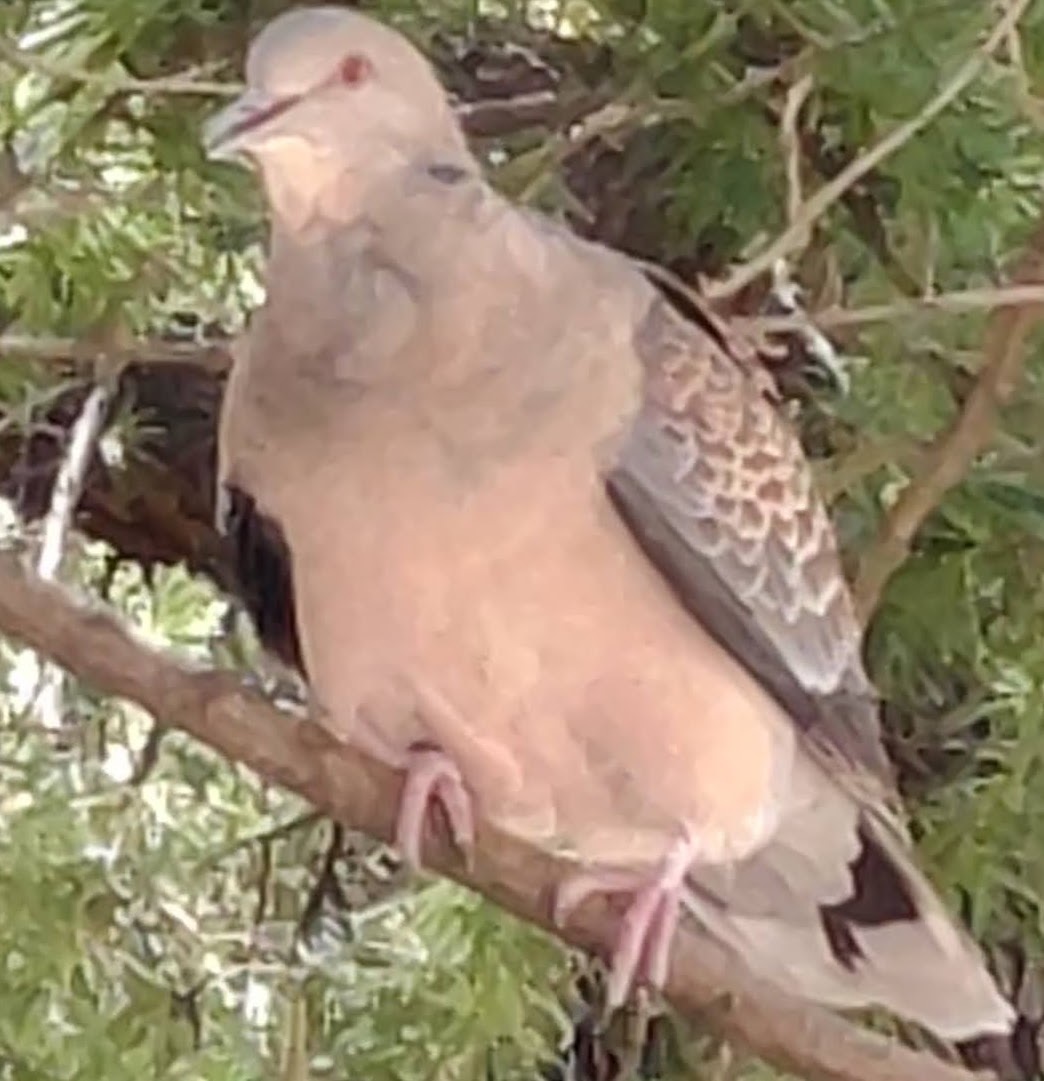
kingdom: Animalia
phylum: Chordata
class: Aves
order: Columbiformes
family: Columbidae
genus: Streptopelia
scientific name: Streptopelia orientalis
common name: Oriental turtle dove
